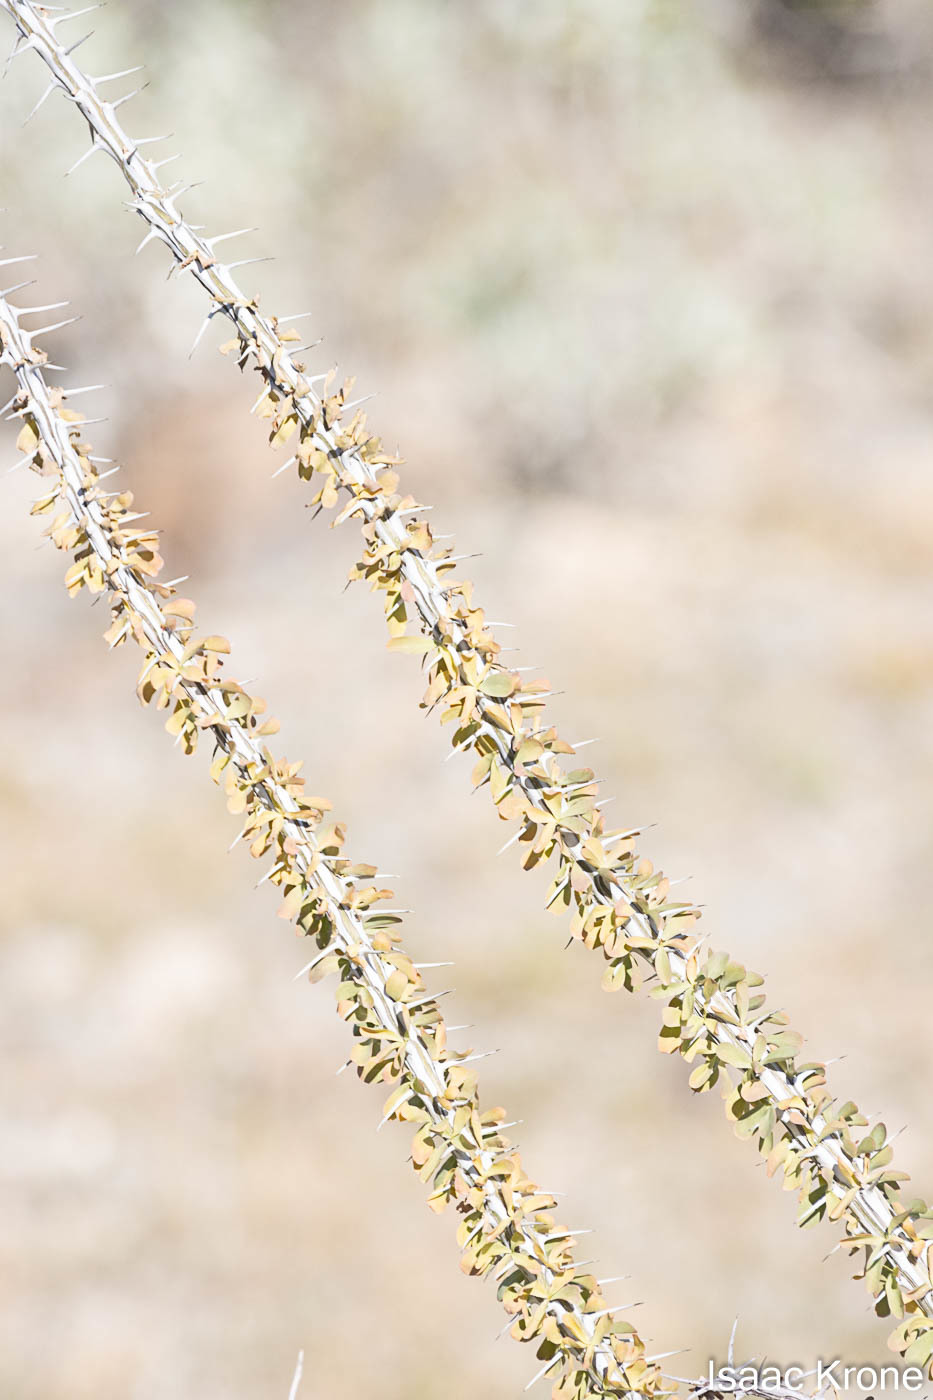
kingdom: Plantae
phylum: Tracheophyta
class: Magnoliopsida
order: Ericales
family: Fouquieriaceae
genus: Fouquieria
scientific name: Fouquieria splendens
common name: Vine-cactus
